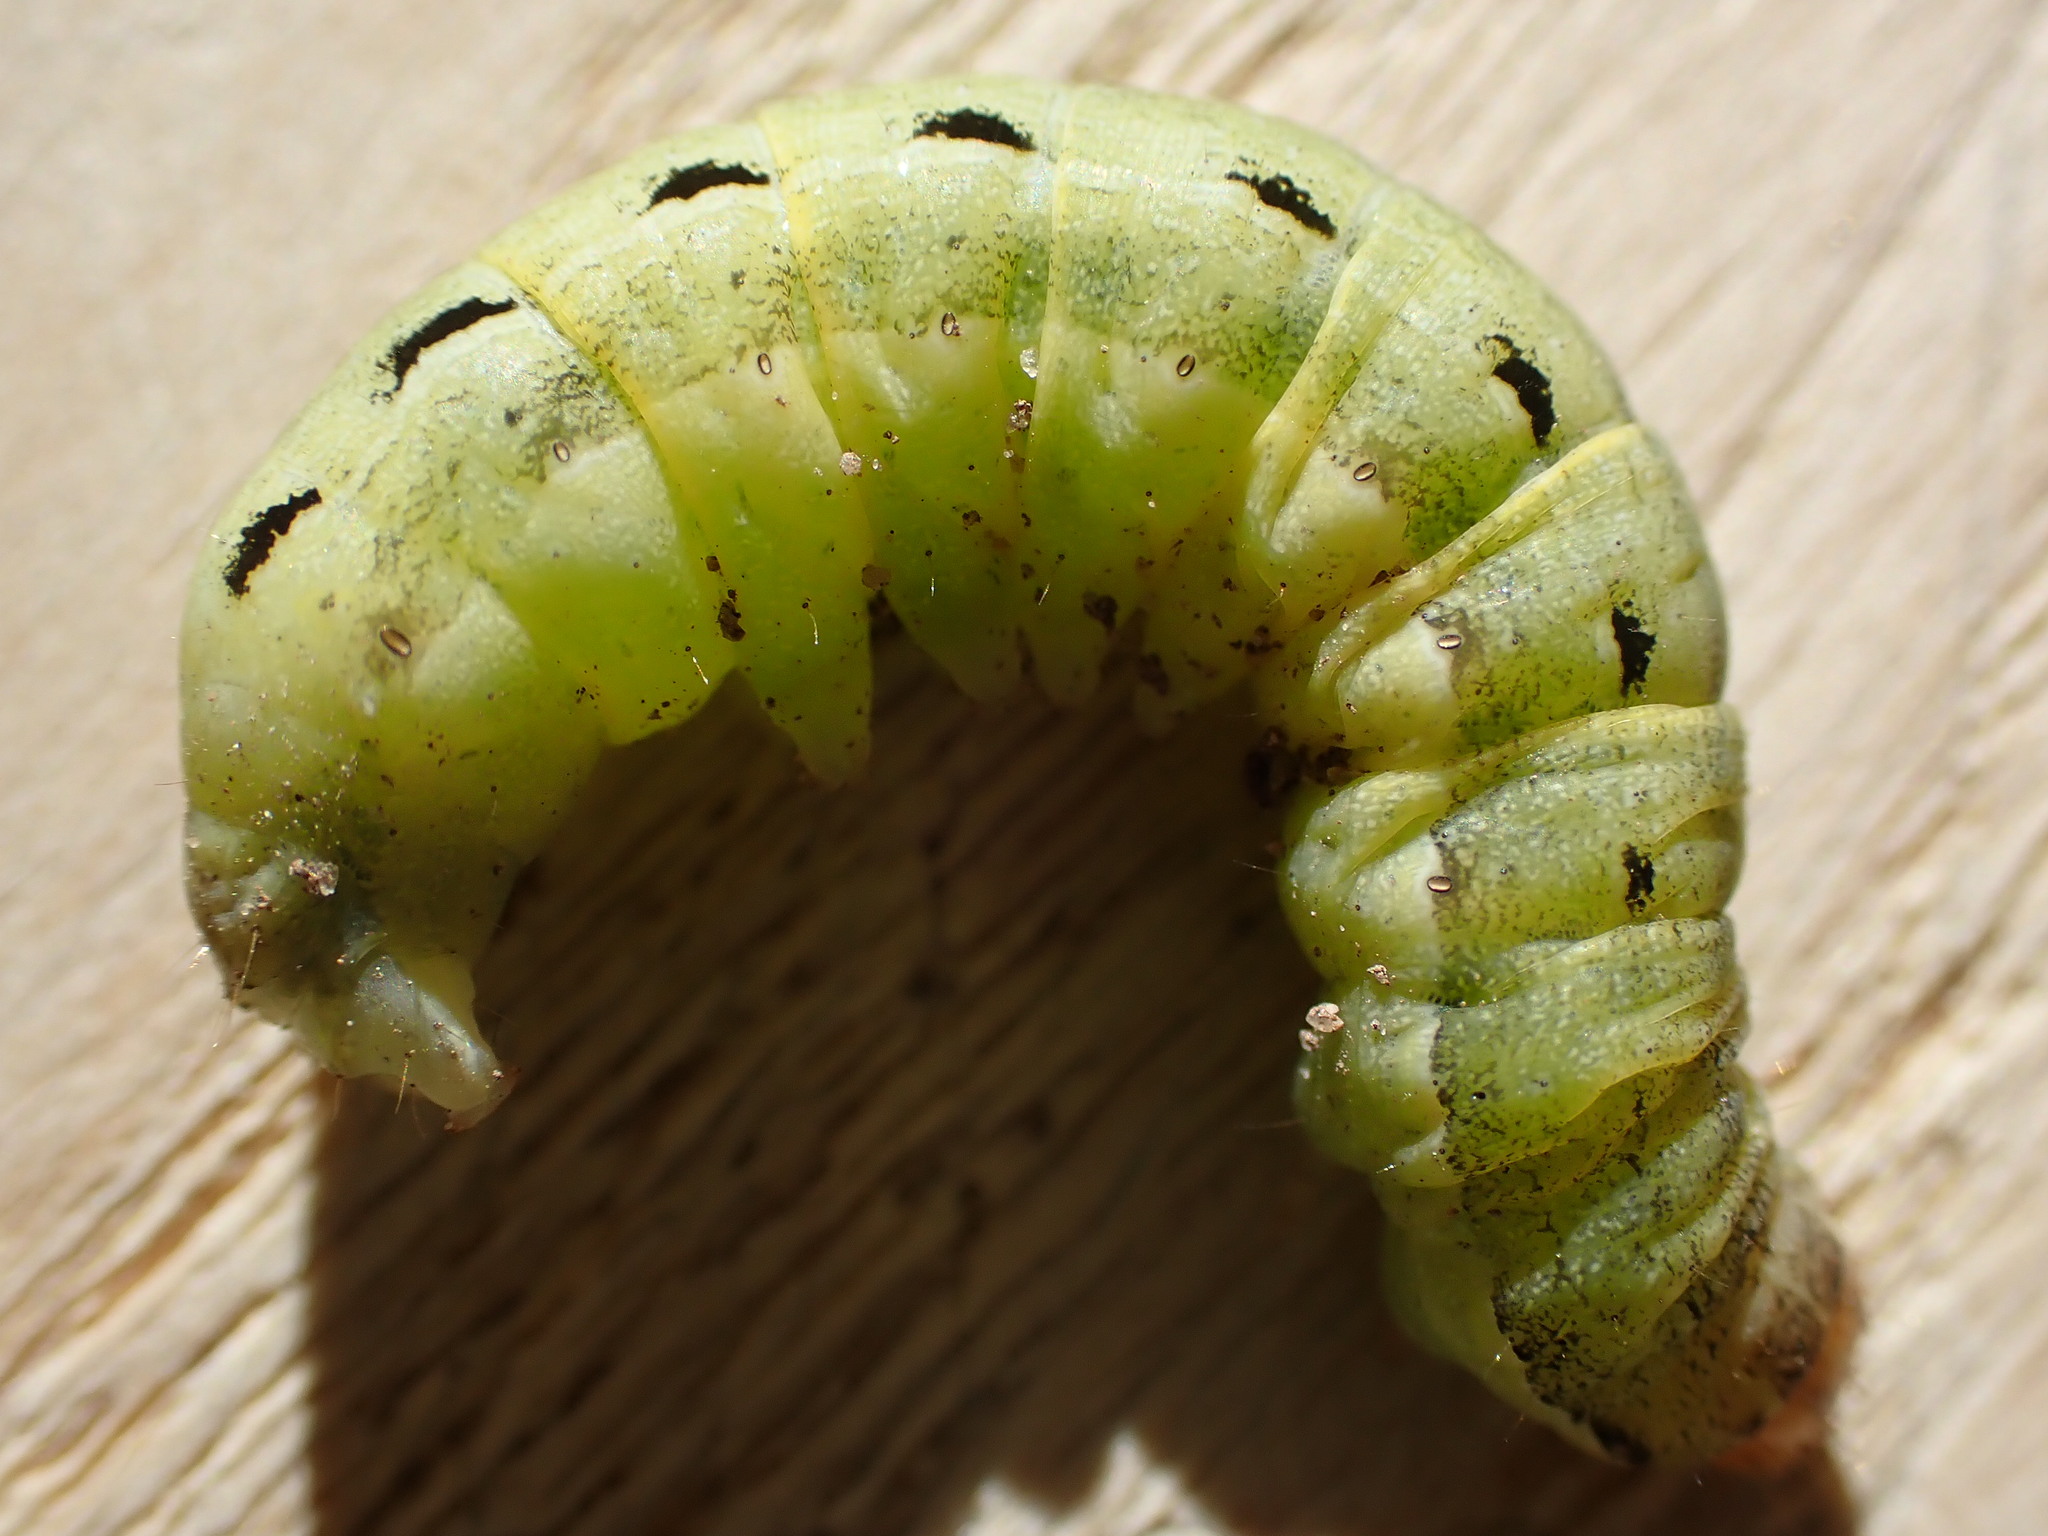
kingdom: Animalia
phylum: Arthropoda
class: Insecta
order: Lepidoptera
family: Noctuidae
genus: Noctua
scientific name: Noctua pronuba
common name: Large yellow underwing
